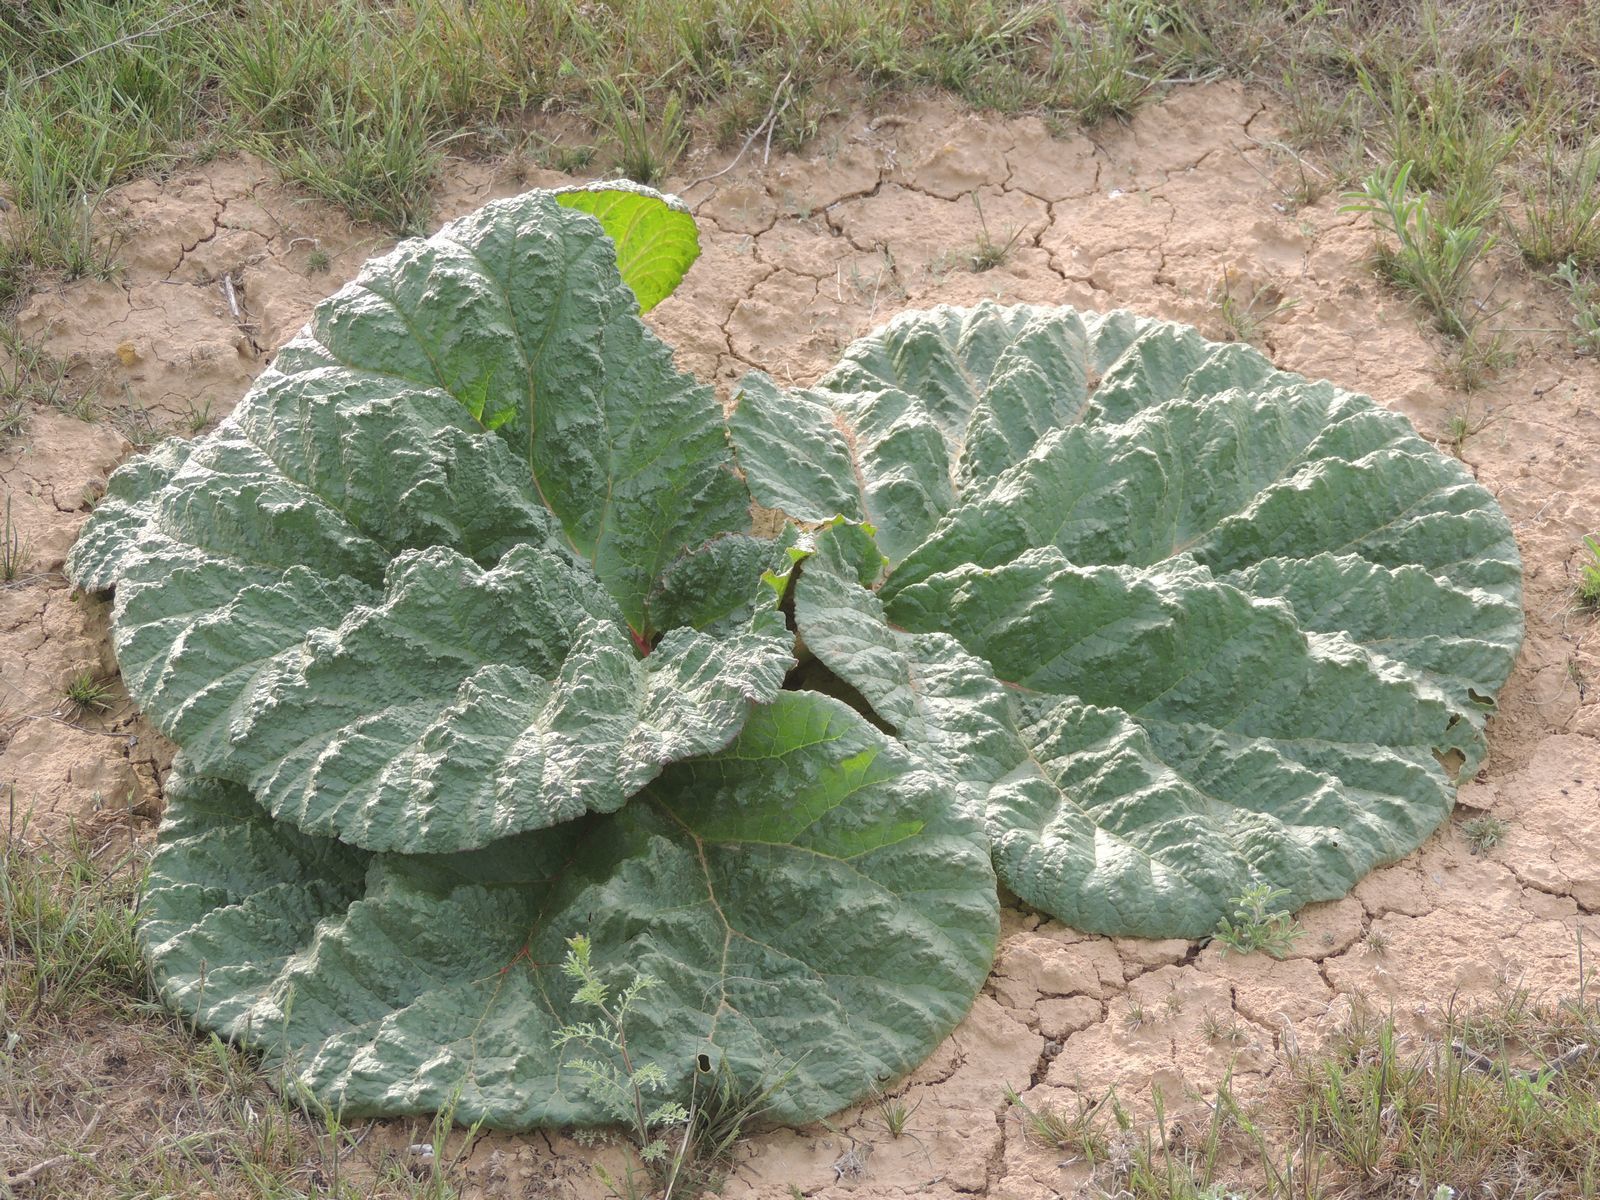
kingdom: Plantae
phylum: Tracheophyta
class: Magnoliopsida
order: Caryophyllales
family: Polygonaceae
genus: Rheum
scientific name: Rheum tataricum
